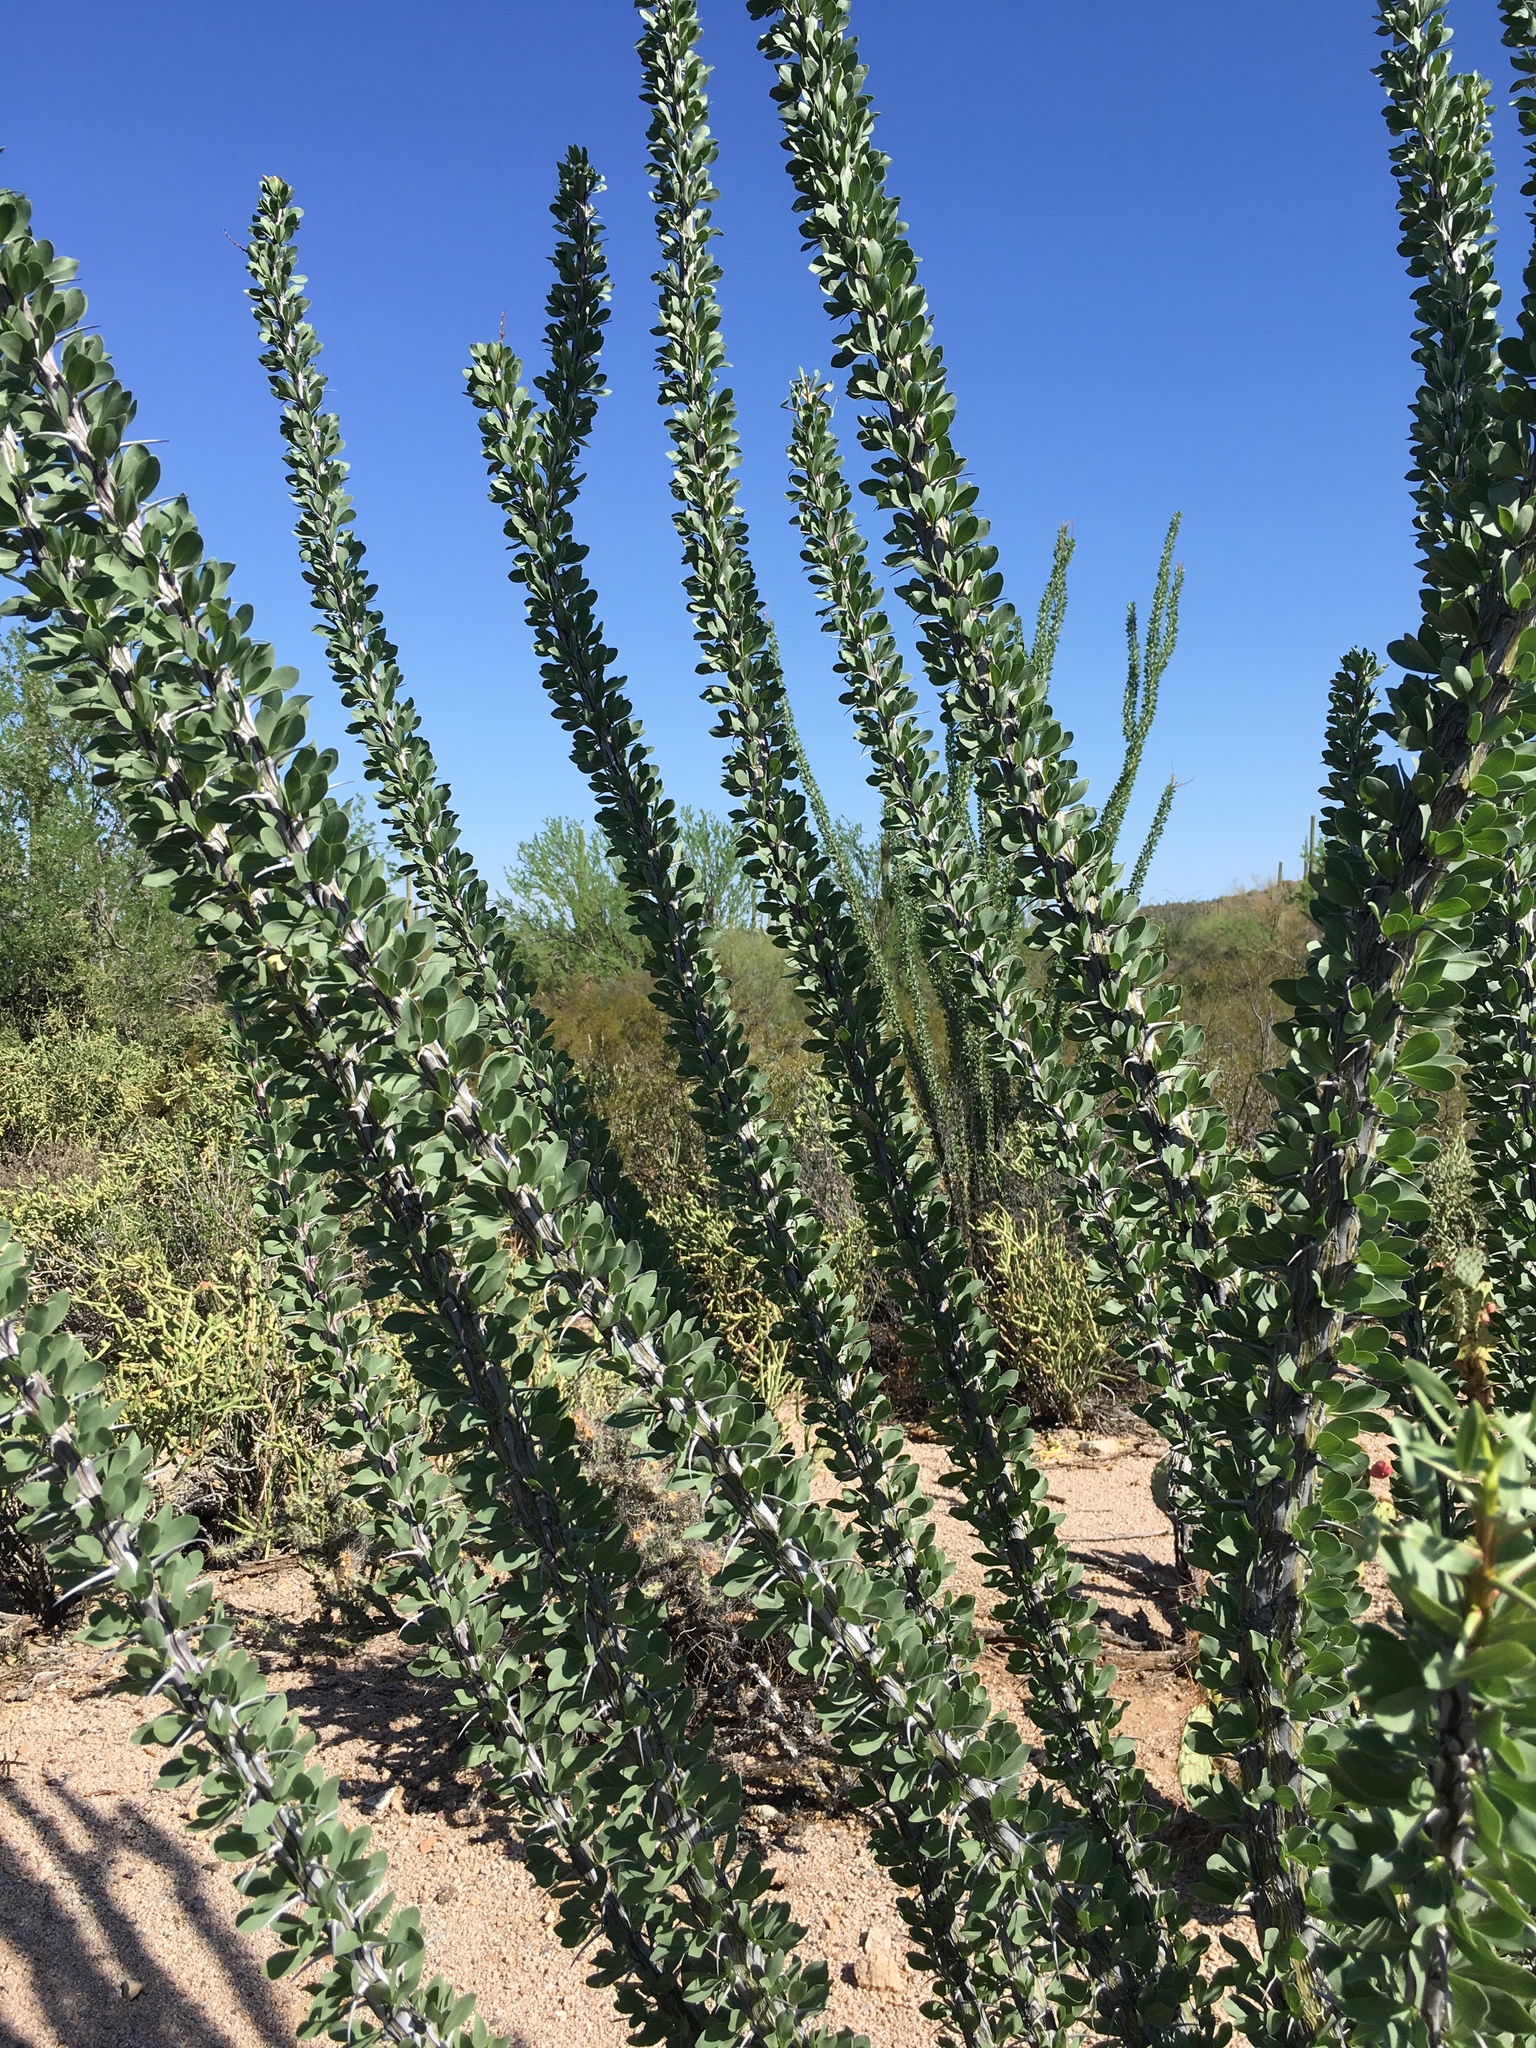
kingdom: Plantae
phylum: Tracheophyta
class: Magnoliopsida
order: Ericales
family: Fouquieriaceae
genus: Fouquieria
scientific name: Fouquieria splendens
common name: Vine-cactus
